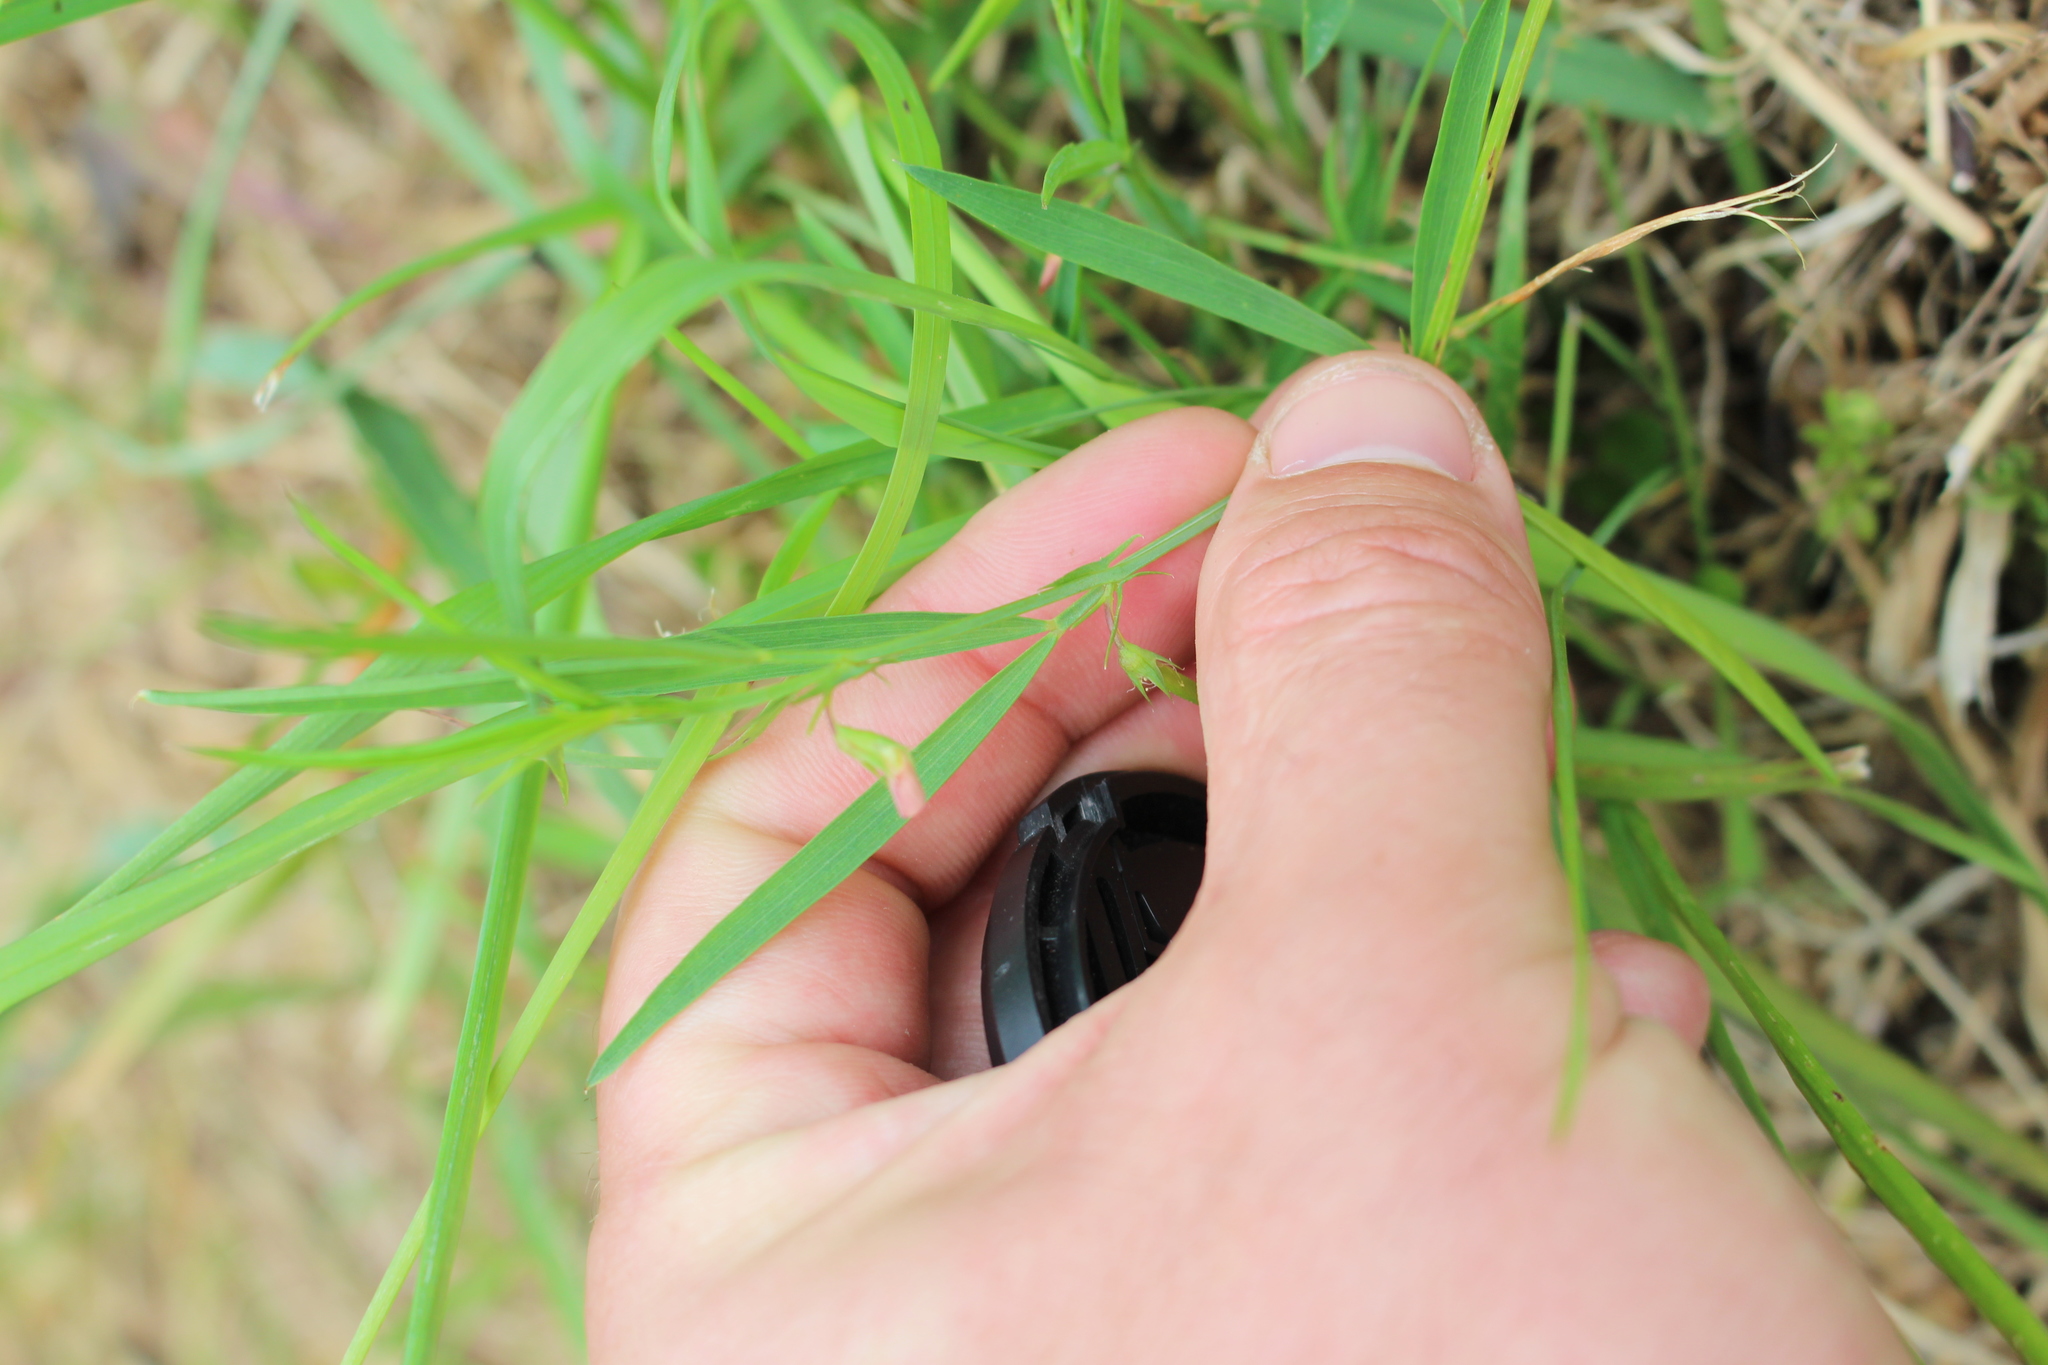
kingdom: Plantae
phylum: Tracheophyta
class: Magnoliopsida
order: Fabales
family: Fabaceae
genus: Lathyrus
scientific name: Lathyrus sphaericus
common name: Grass pea
